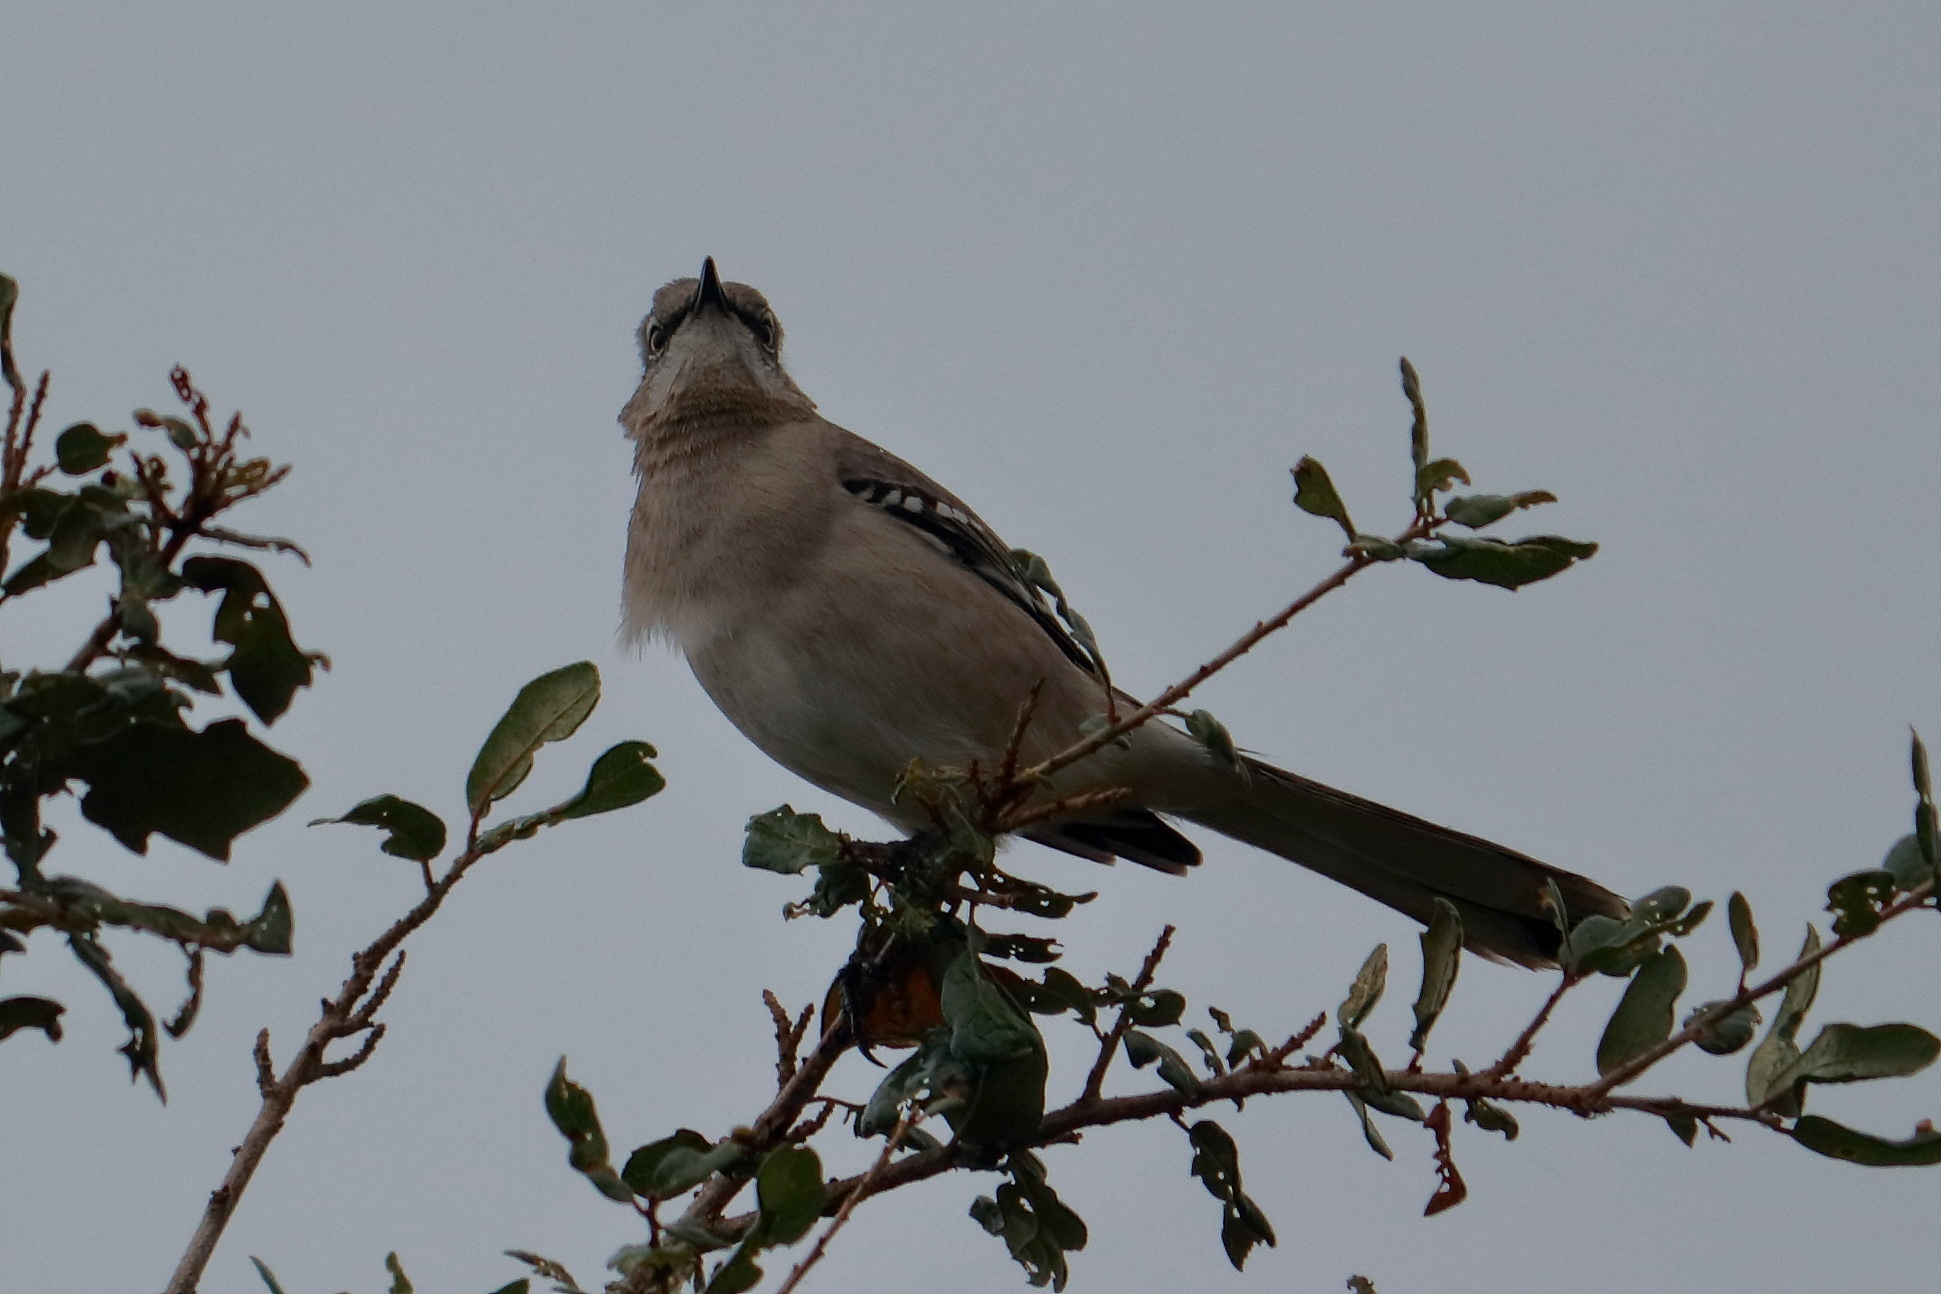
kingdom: Animalia
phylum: Chordata
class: Aves
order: Passeriformes
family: Mimidae
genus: Mimus
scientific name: Mimus polyglottos
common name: Northern mockingbird
